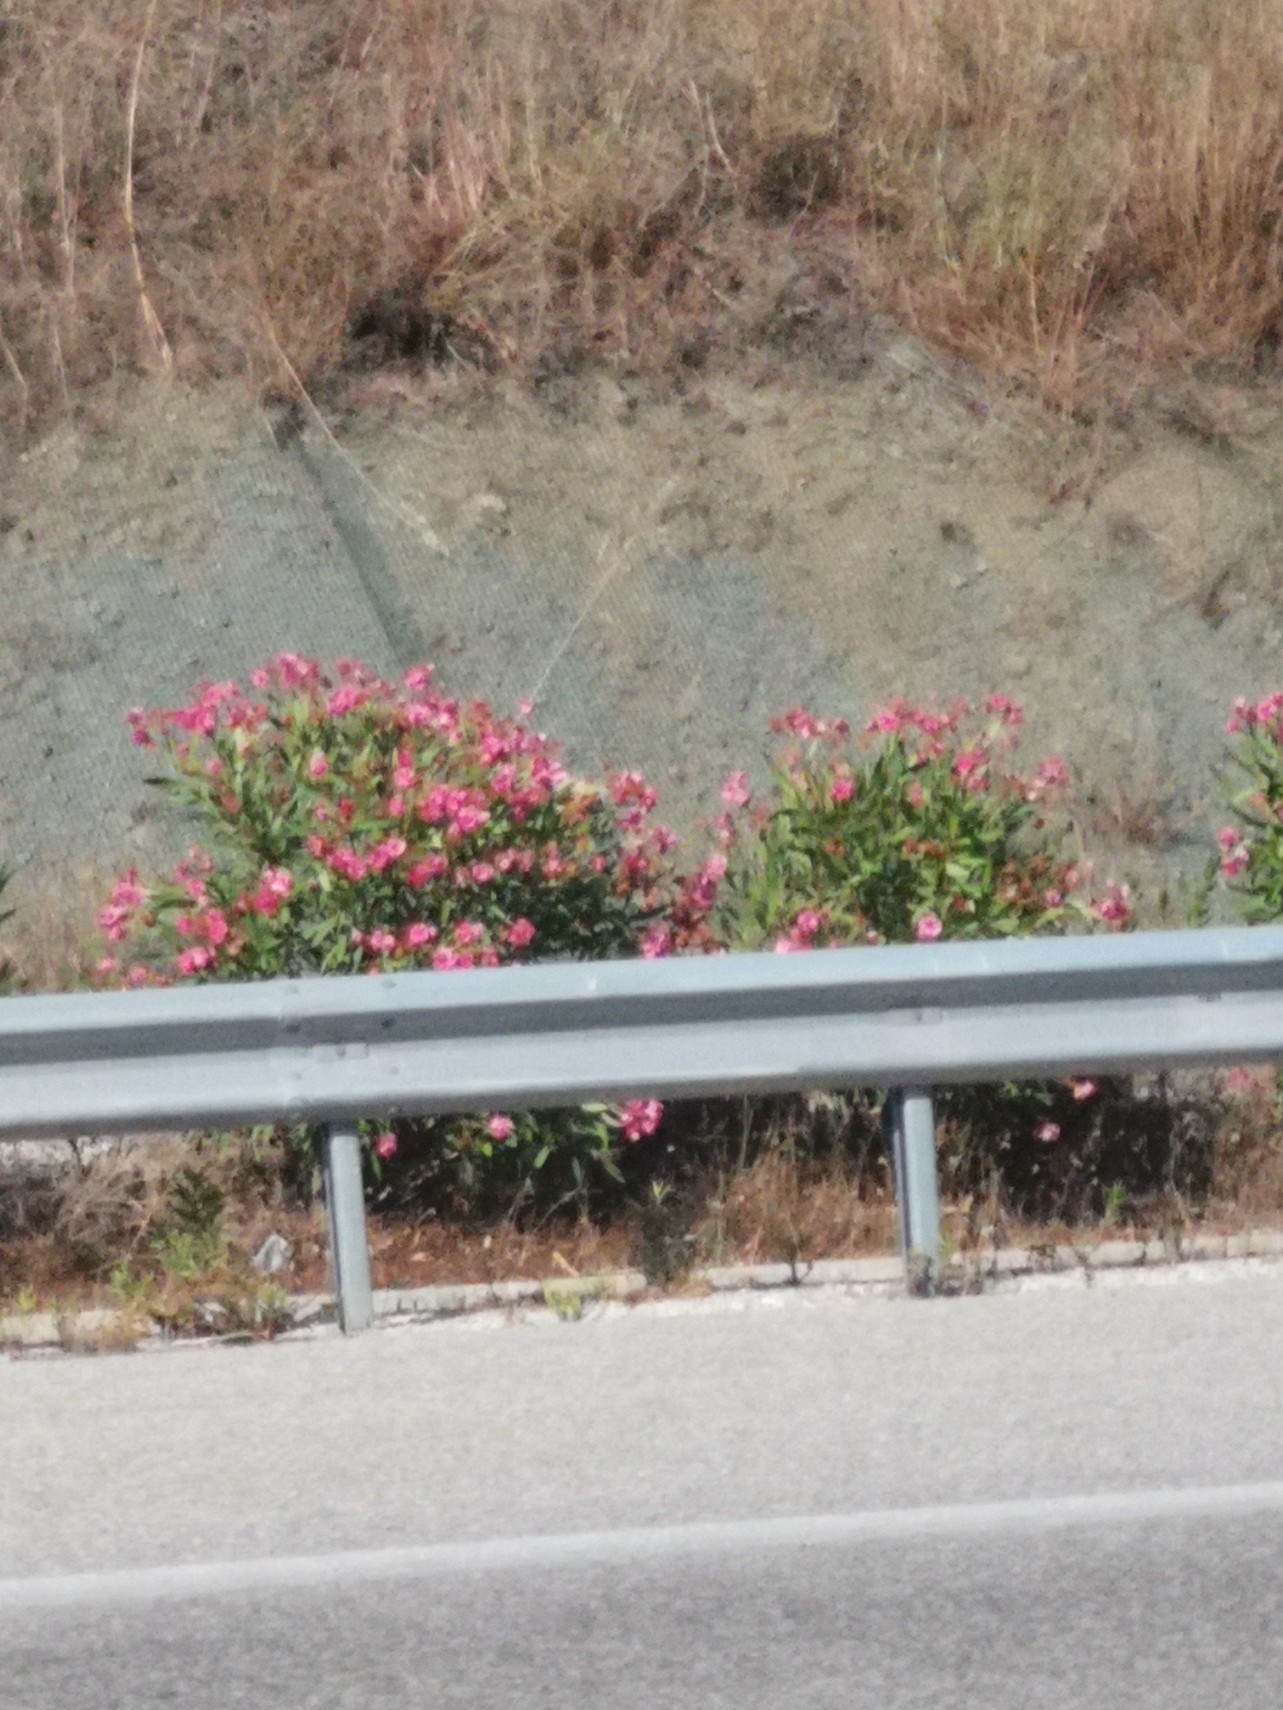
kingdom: Plantae
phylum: Tracheophyta
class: Magnoliopsida
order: Gentianales
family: Apocynaceae
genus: Nerium
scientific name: Nerium oleander
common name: Oleander
